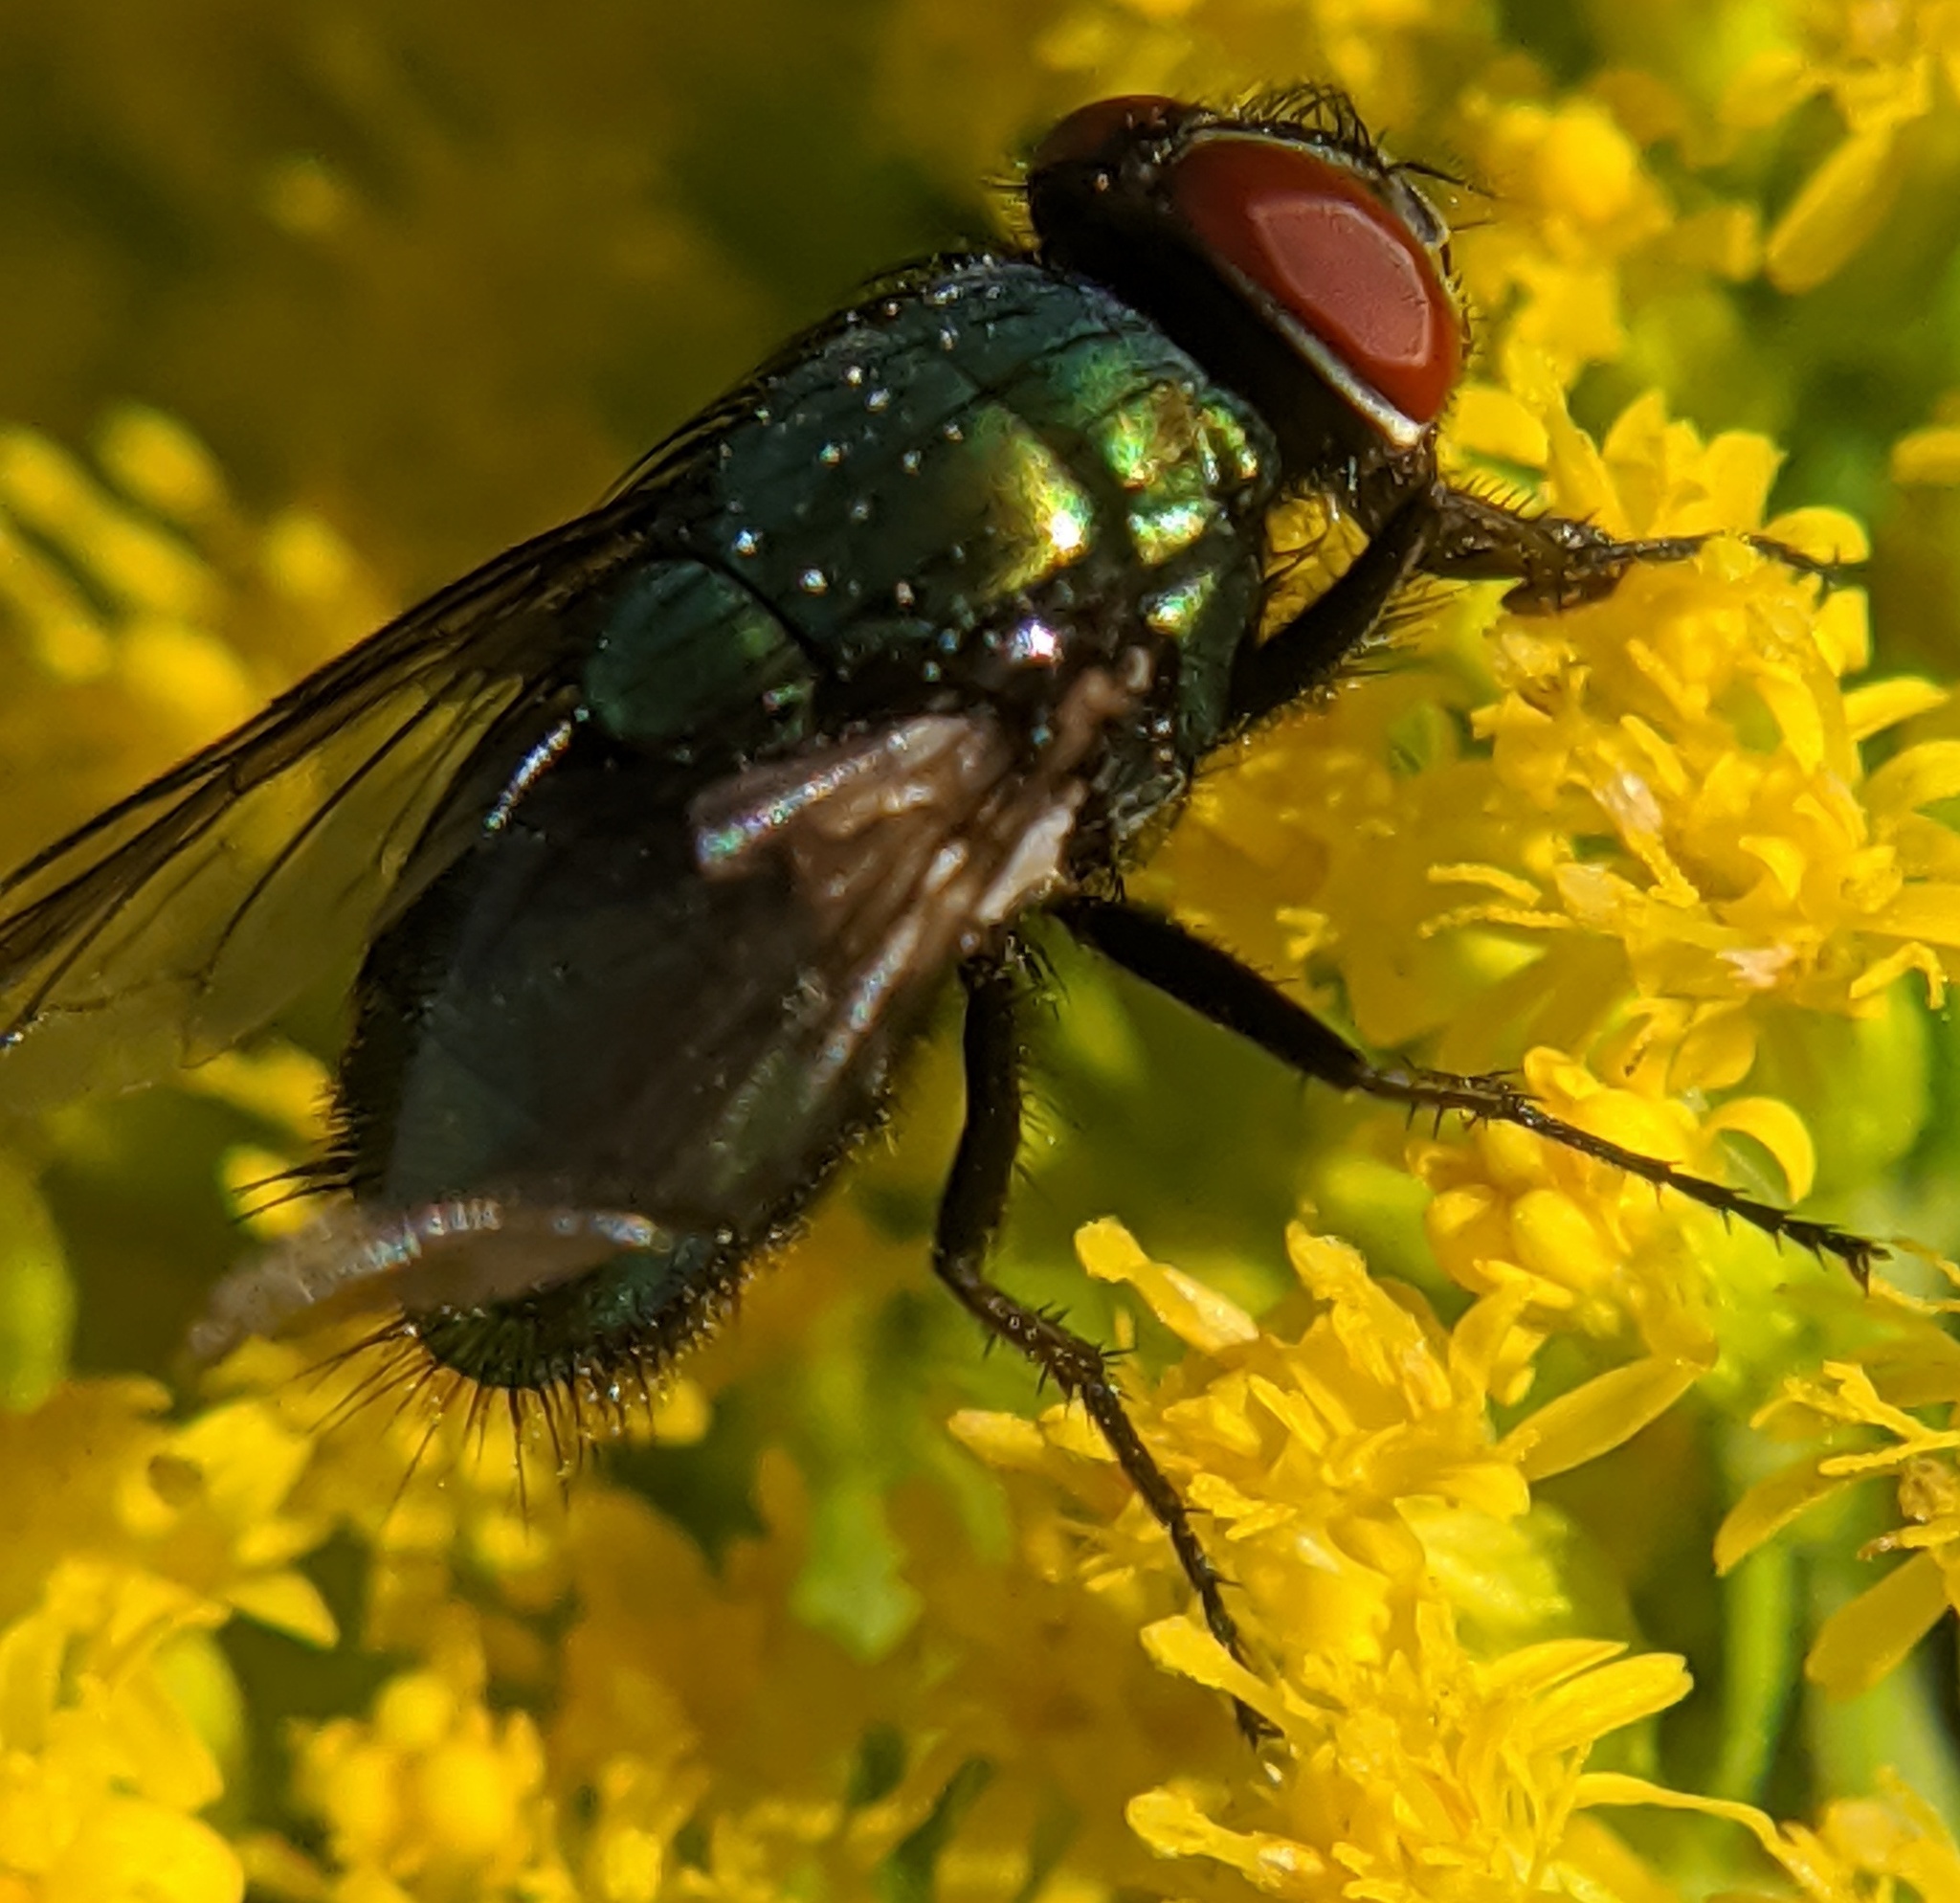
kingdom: Animalia
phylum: Arthropoda
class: Insecta
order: Diptera
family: Calliphoridae
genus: Lucilia
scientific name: Lucilia sericata
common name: Blow fly
